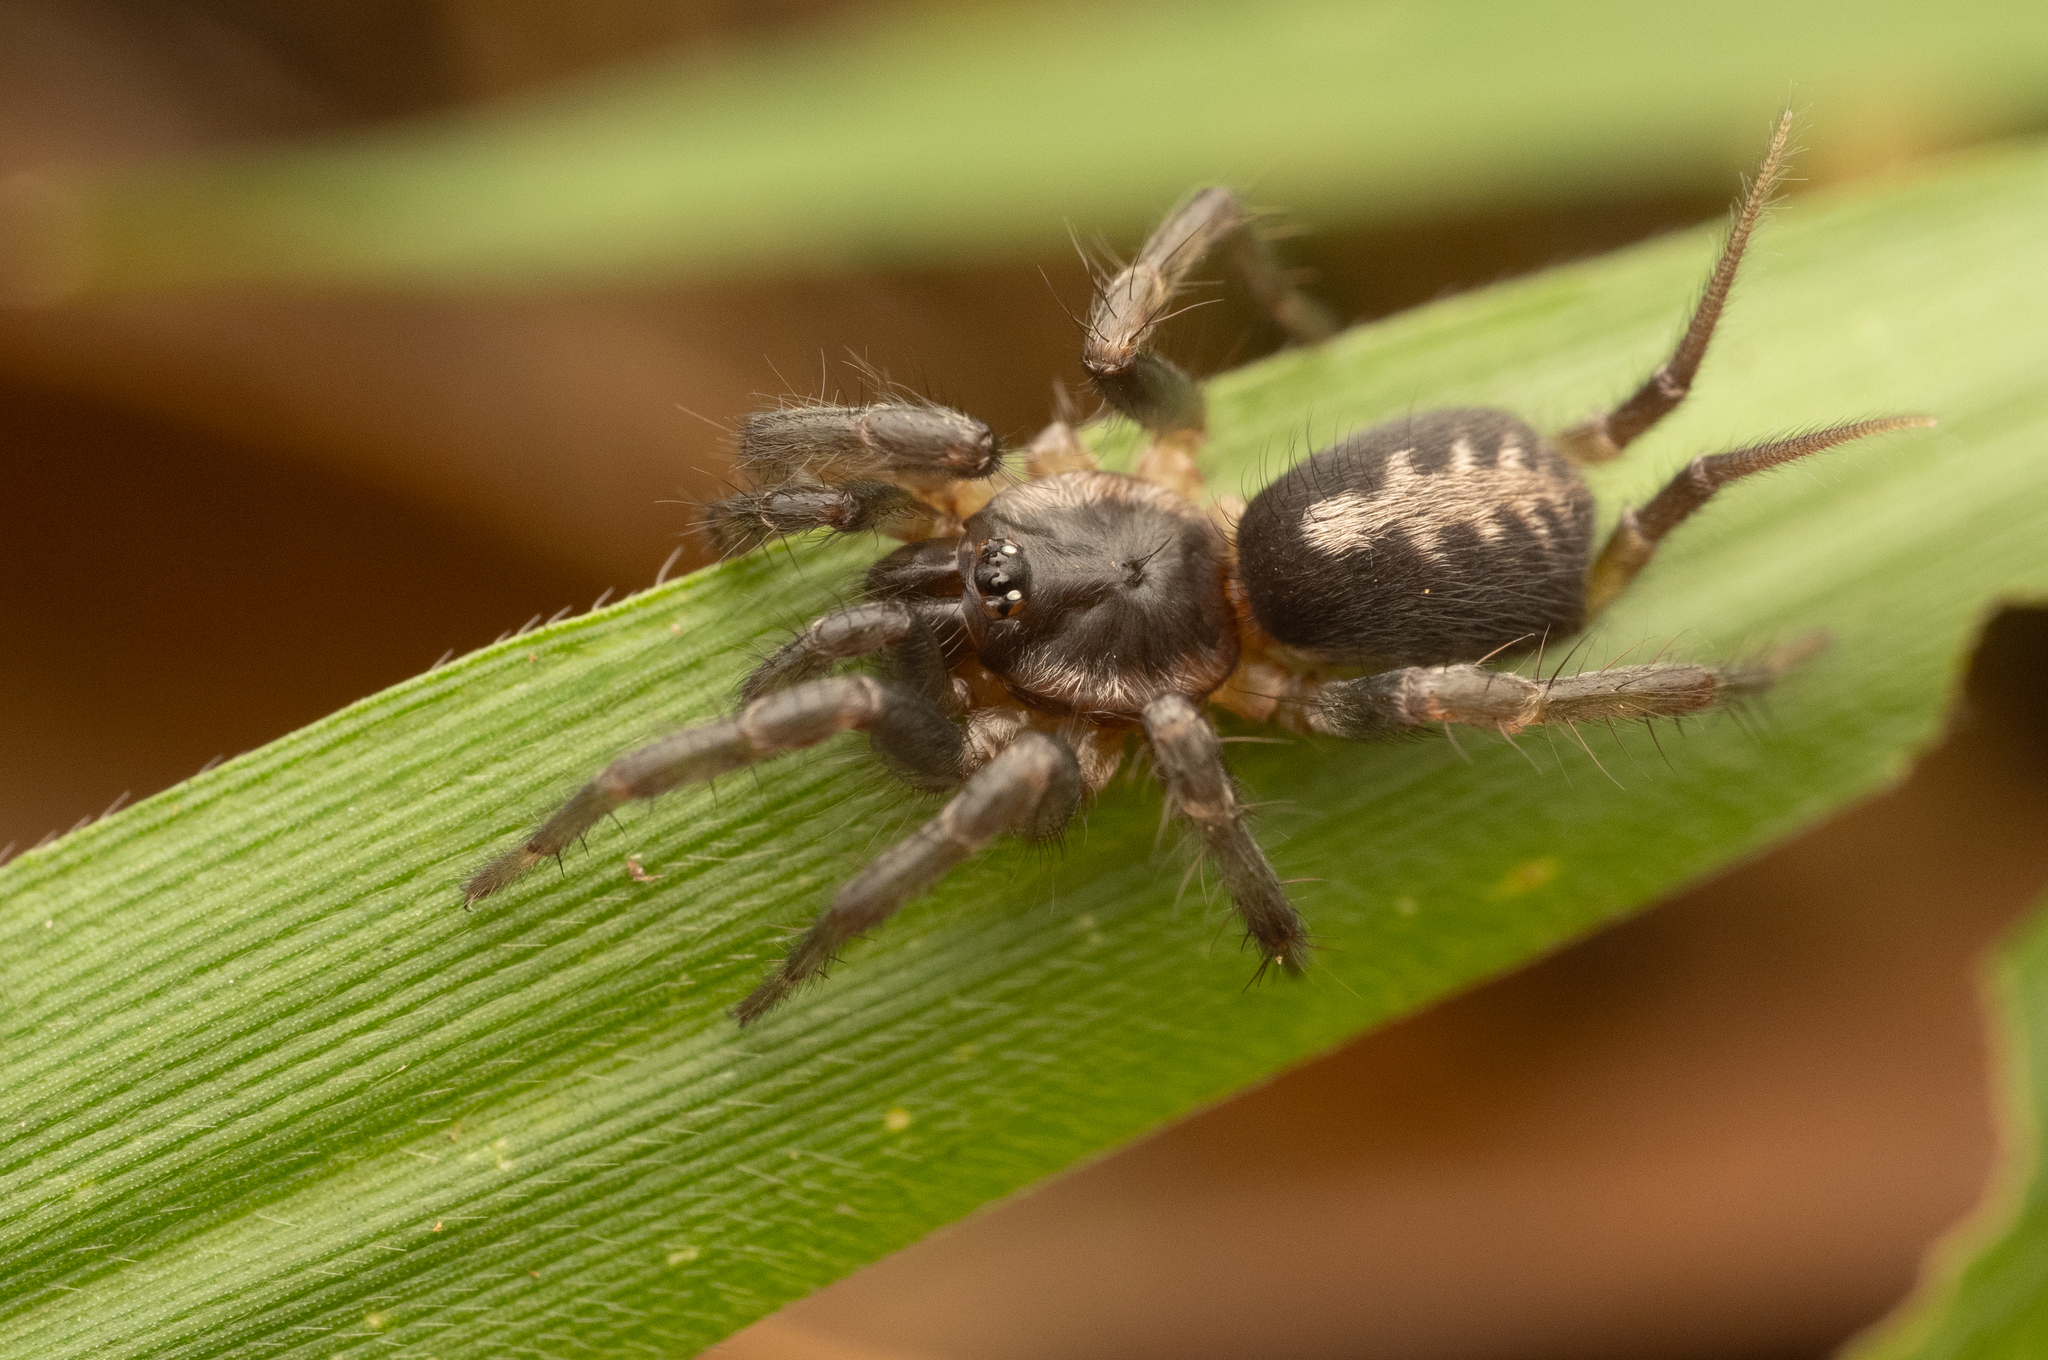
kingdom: Animalia
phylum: Arthropoda
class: Arachnida
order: Araneae
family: Ischnothelidae
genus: Ischnothele
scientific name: Ischnothele guianensis
